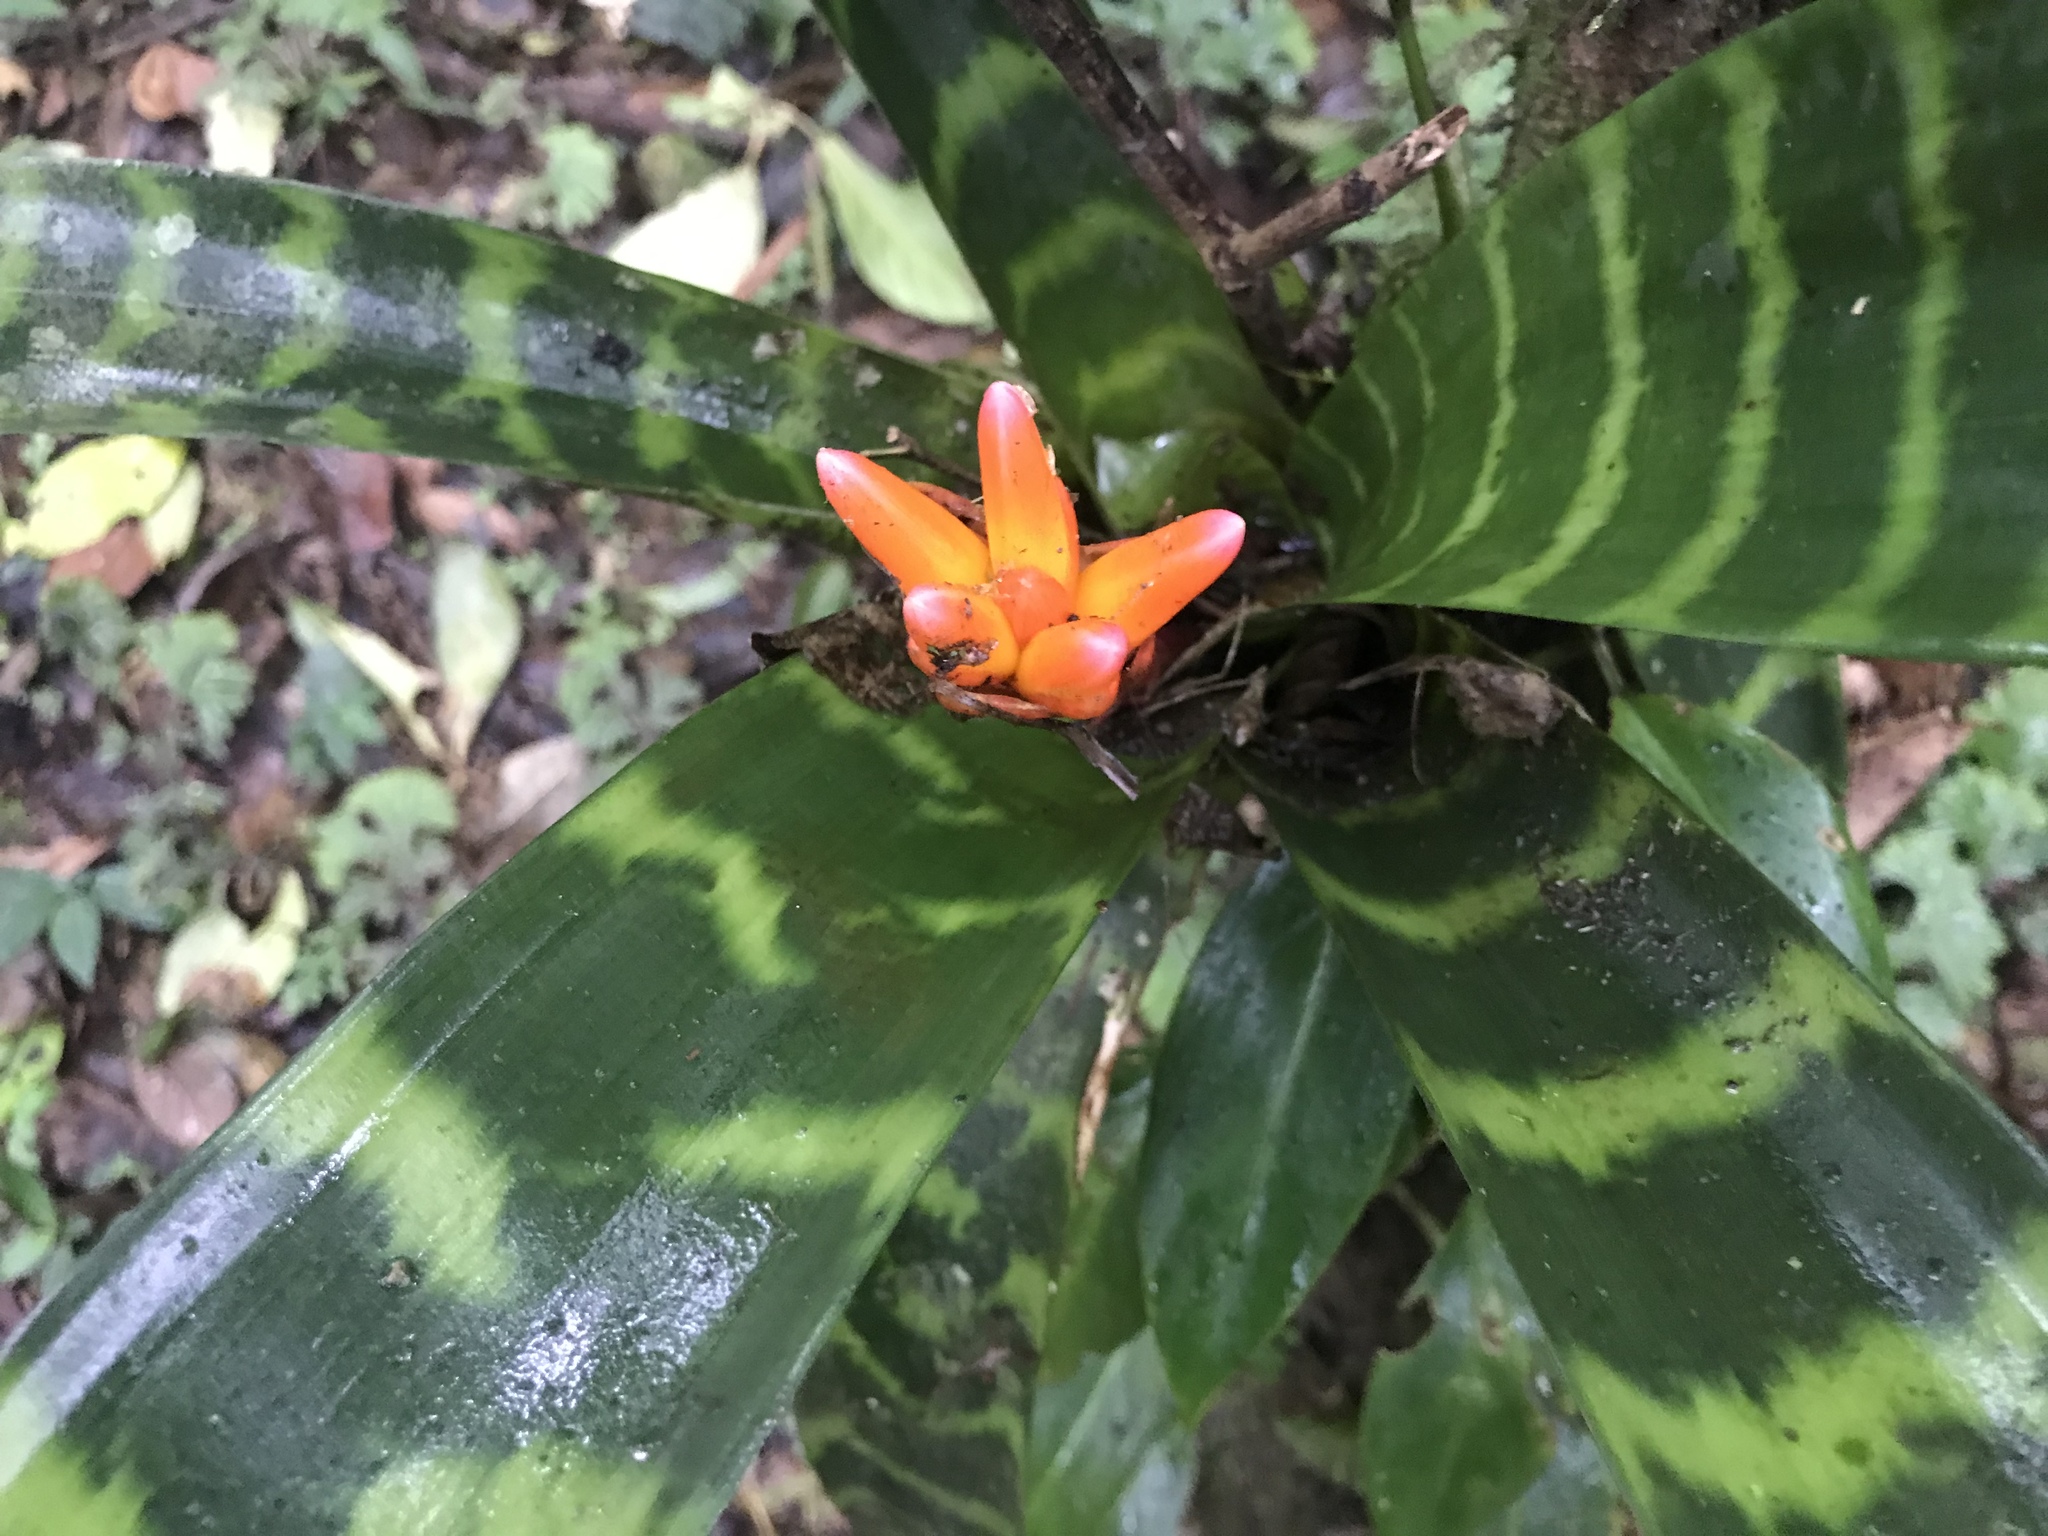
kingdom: Plantae
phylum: Tracheophyta
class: Liliopsida
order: Poales
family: Bromeliaceae
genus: Guzmania
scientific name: Guzmania musaica
